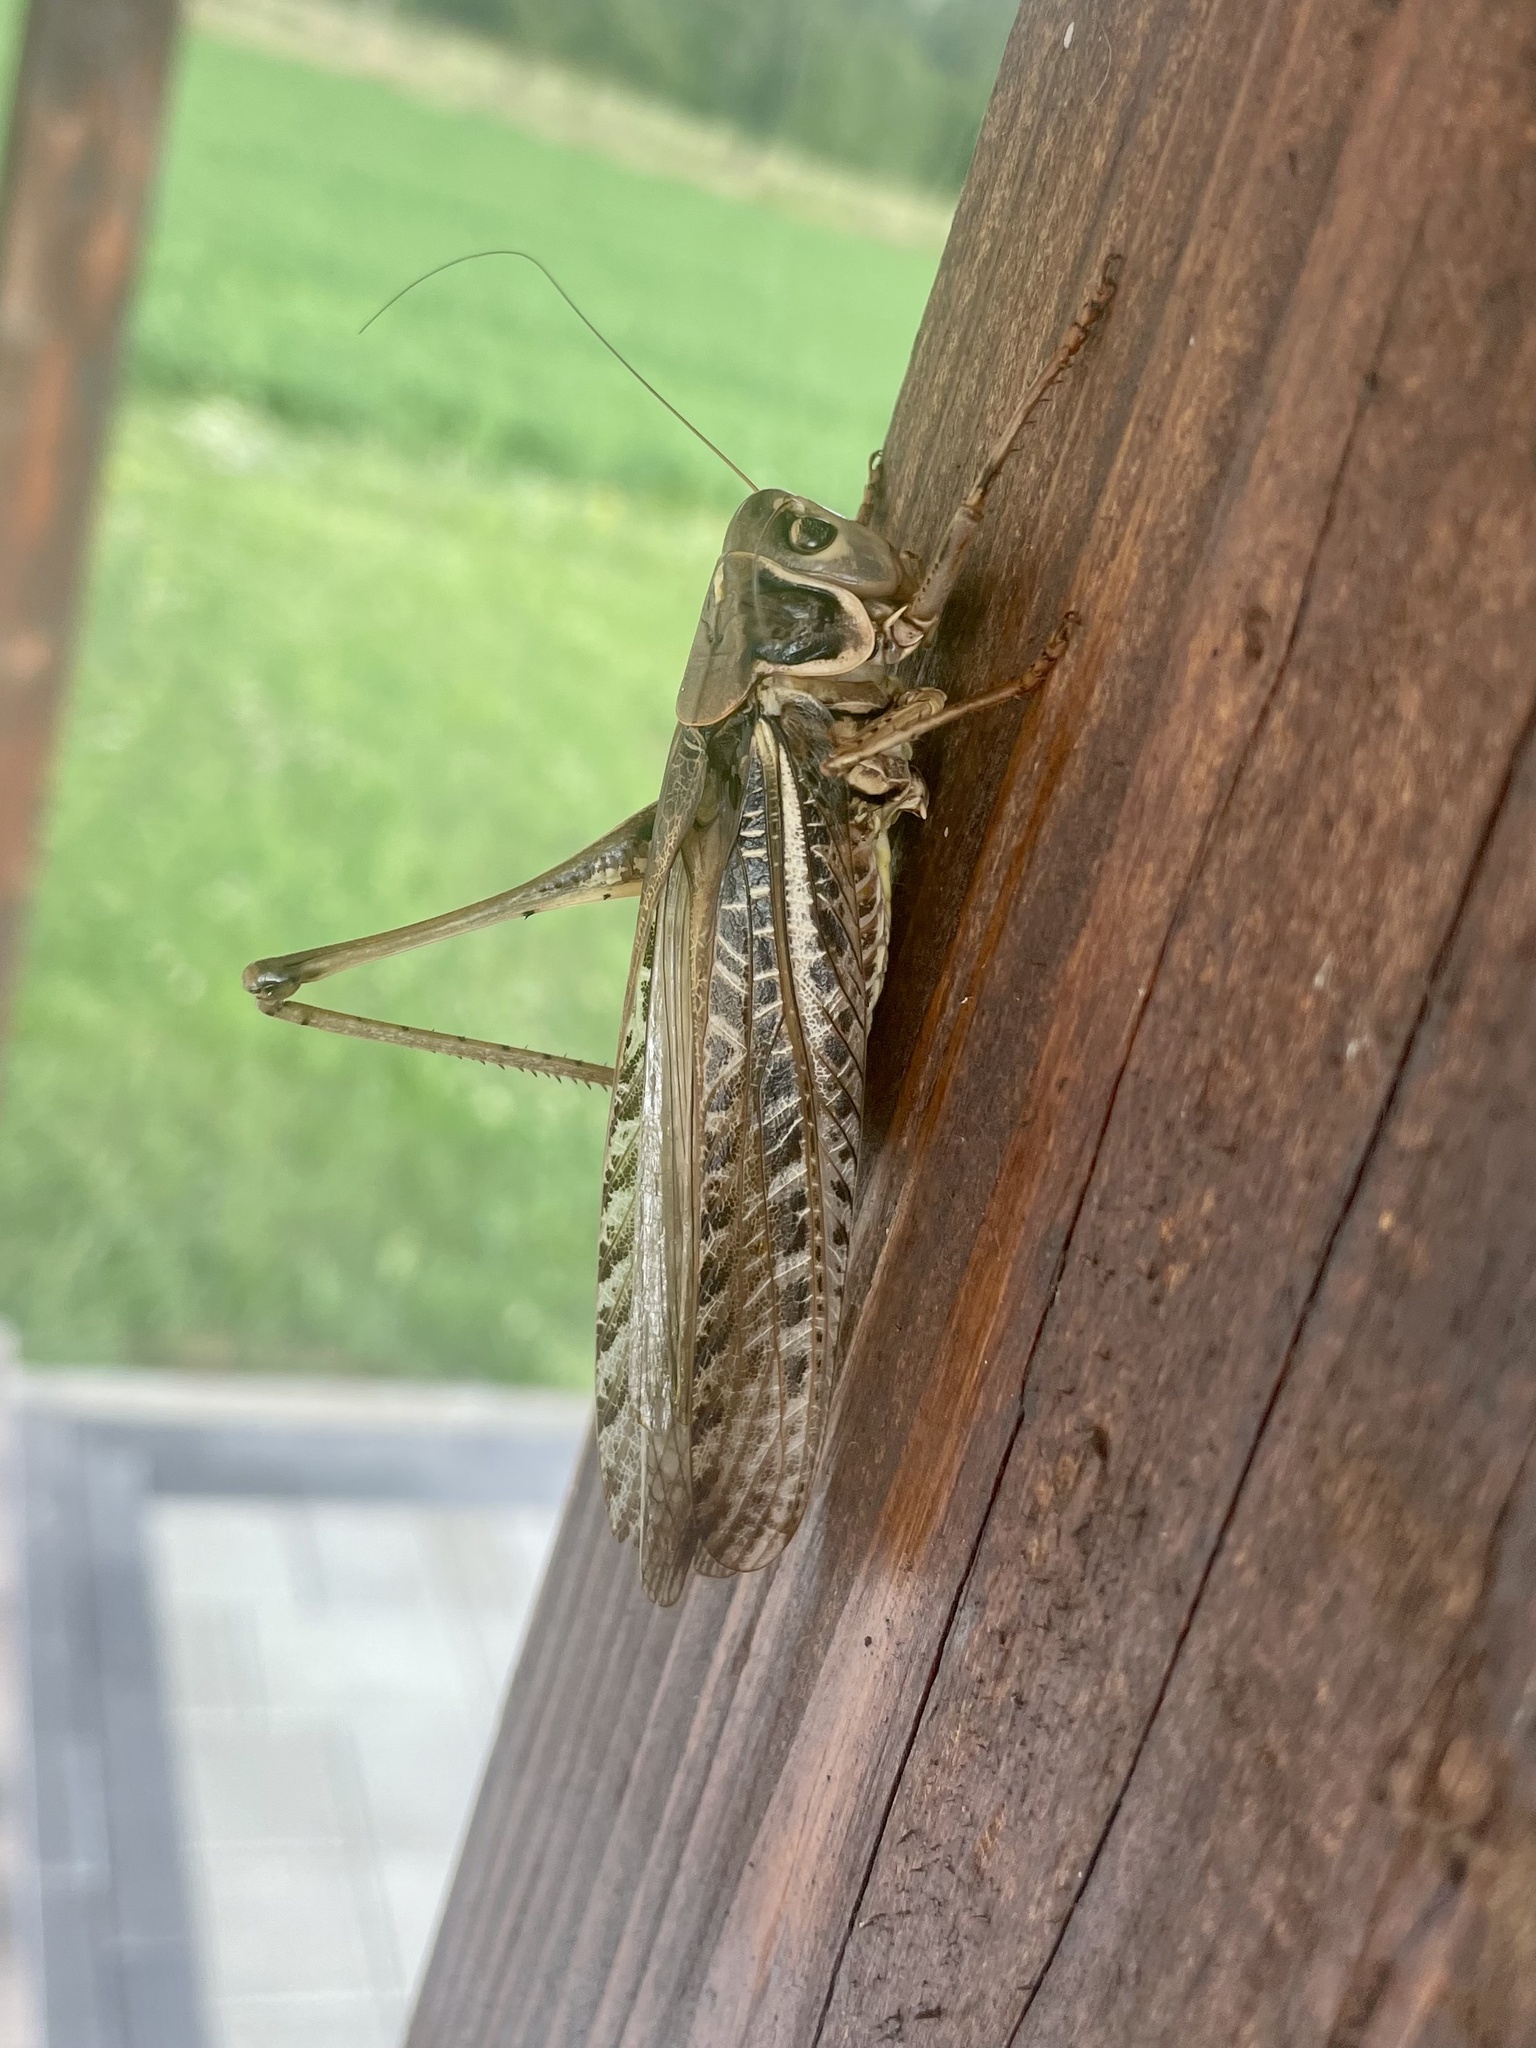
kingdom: Animalia
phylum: Arthropoda
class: Insecta
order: Orthoptera
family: Tettigoniidae
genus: Decticus
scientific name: Decticus albifrons
